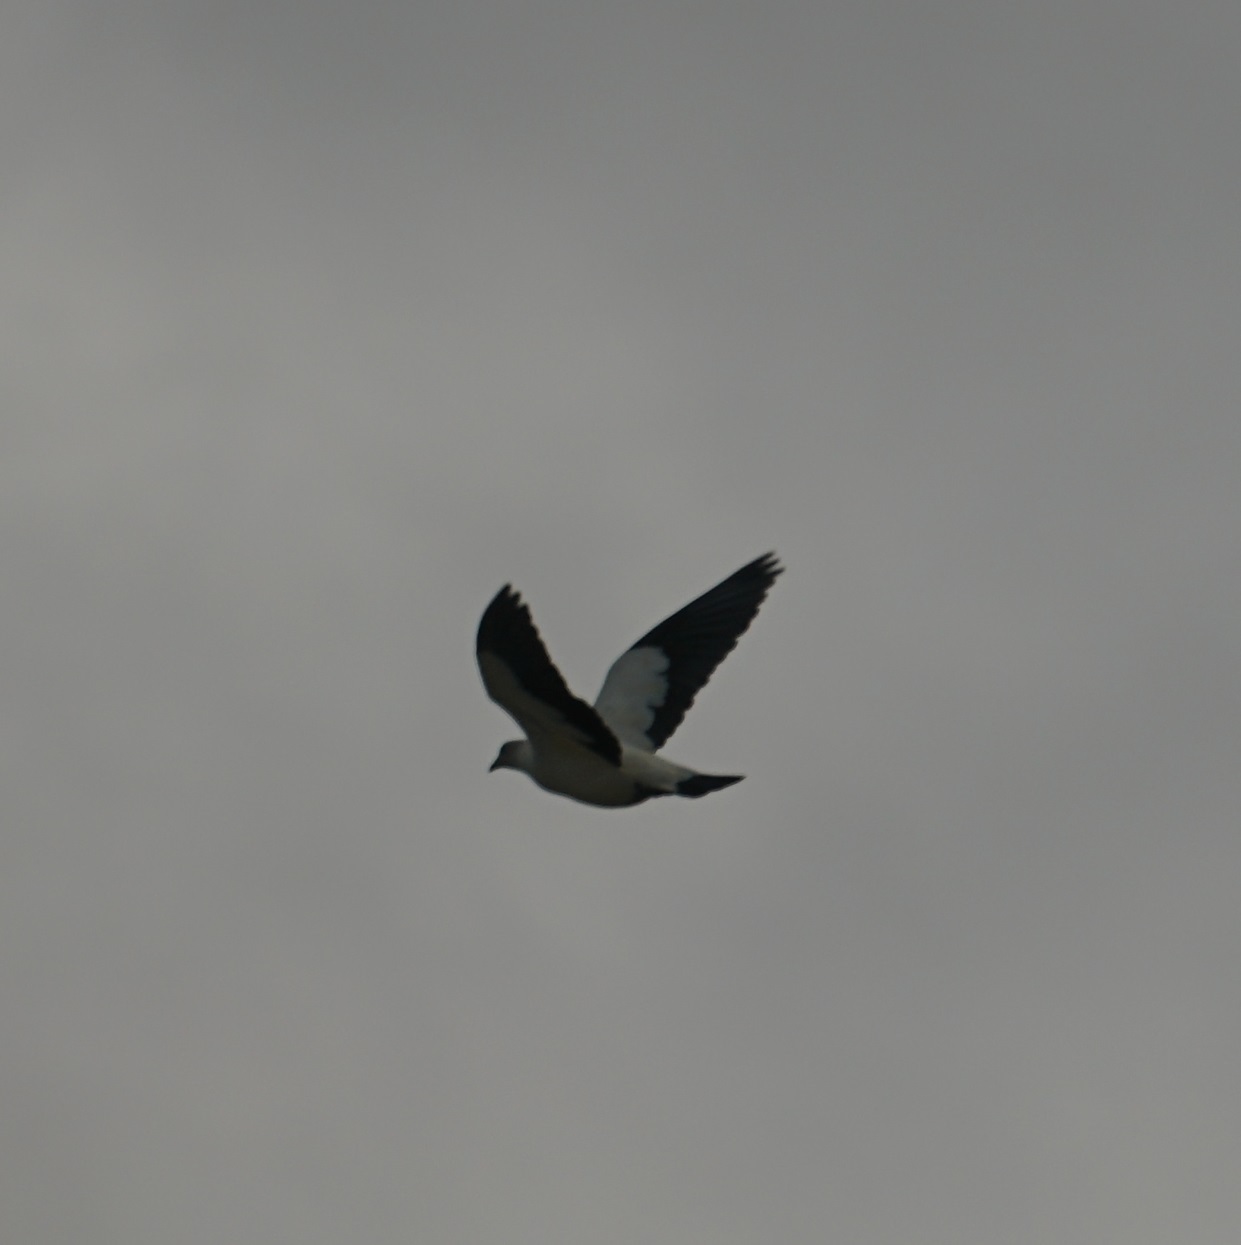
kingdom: Animalia
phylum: Chordata
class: Aves
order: Columbiformes
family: Columbidae
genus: Ducula
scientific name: Ducula spilorrhoa
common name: Torresian imperial pigeon
